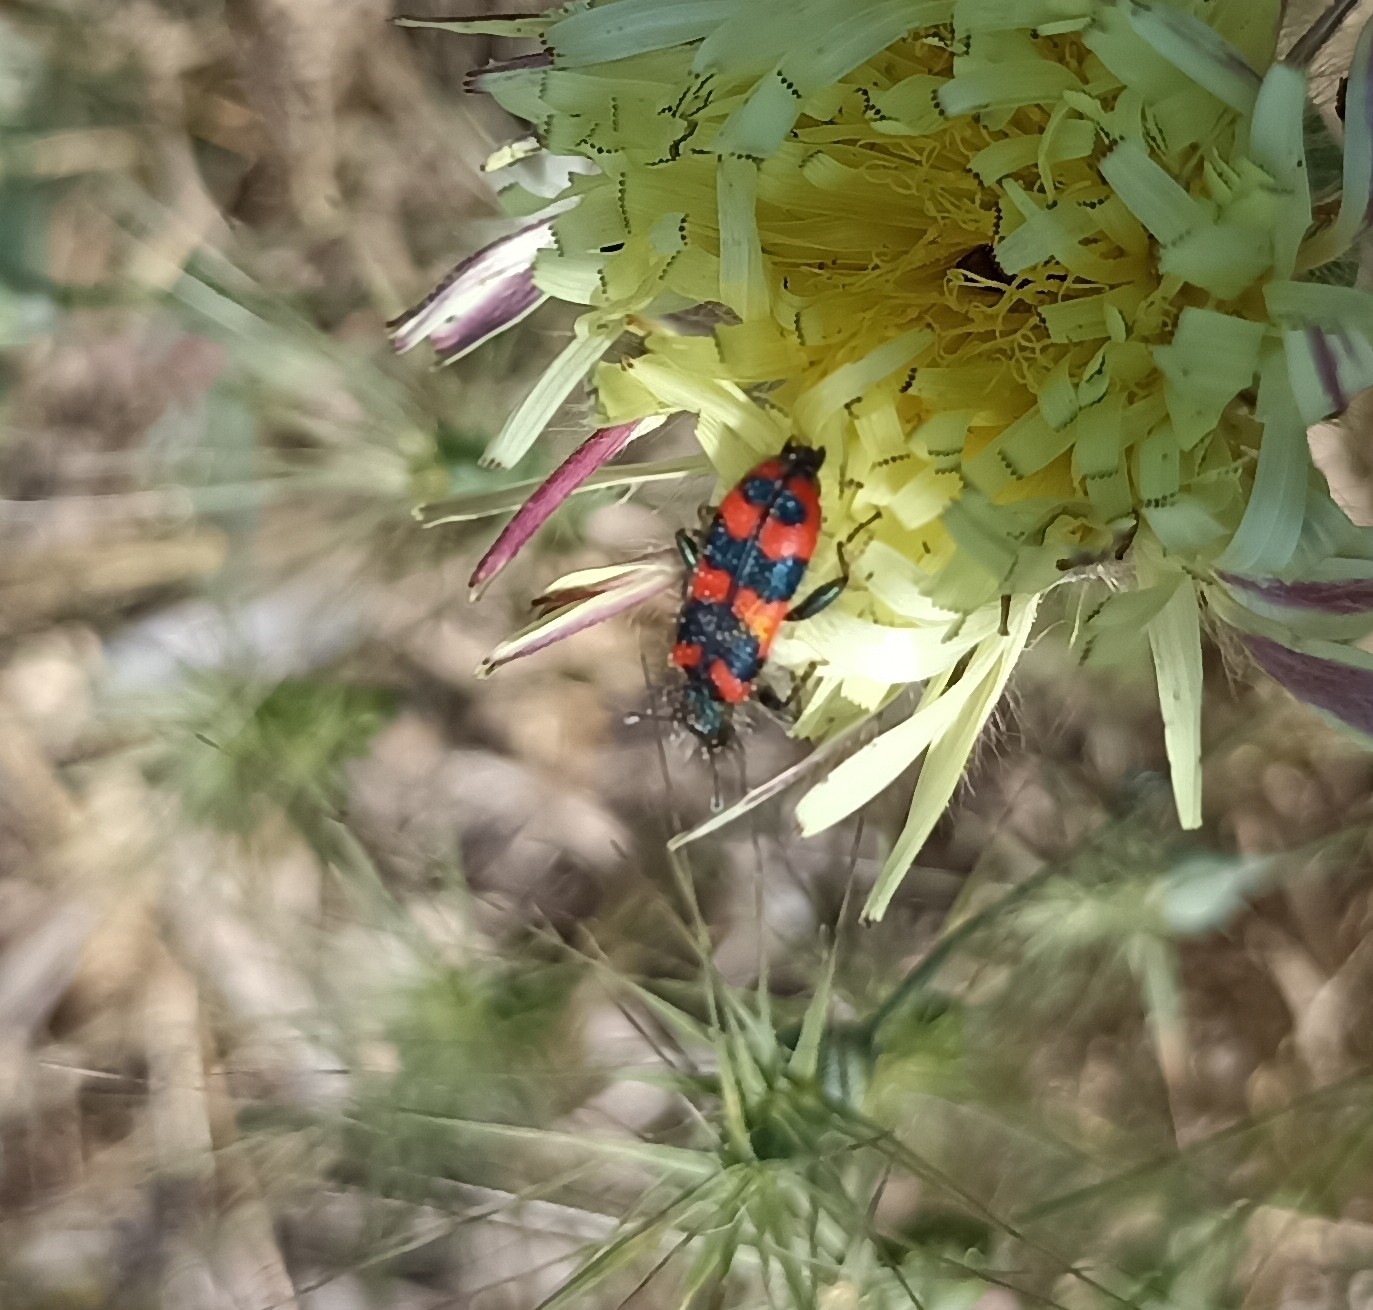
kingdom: Animalia
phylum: Arthropoda
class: Insecta
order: Coleoptera
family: Cleridae
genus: Trichodes
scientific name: Trichodes alvearius
